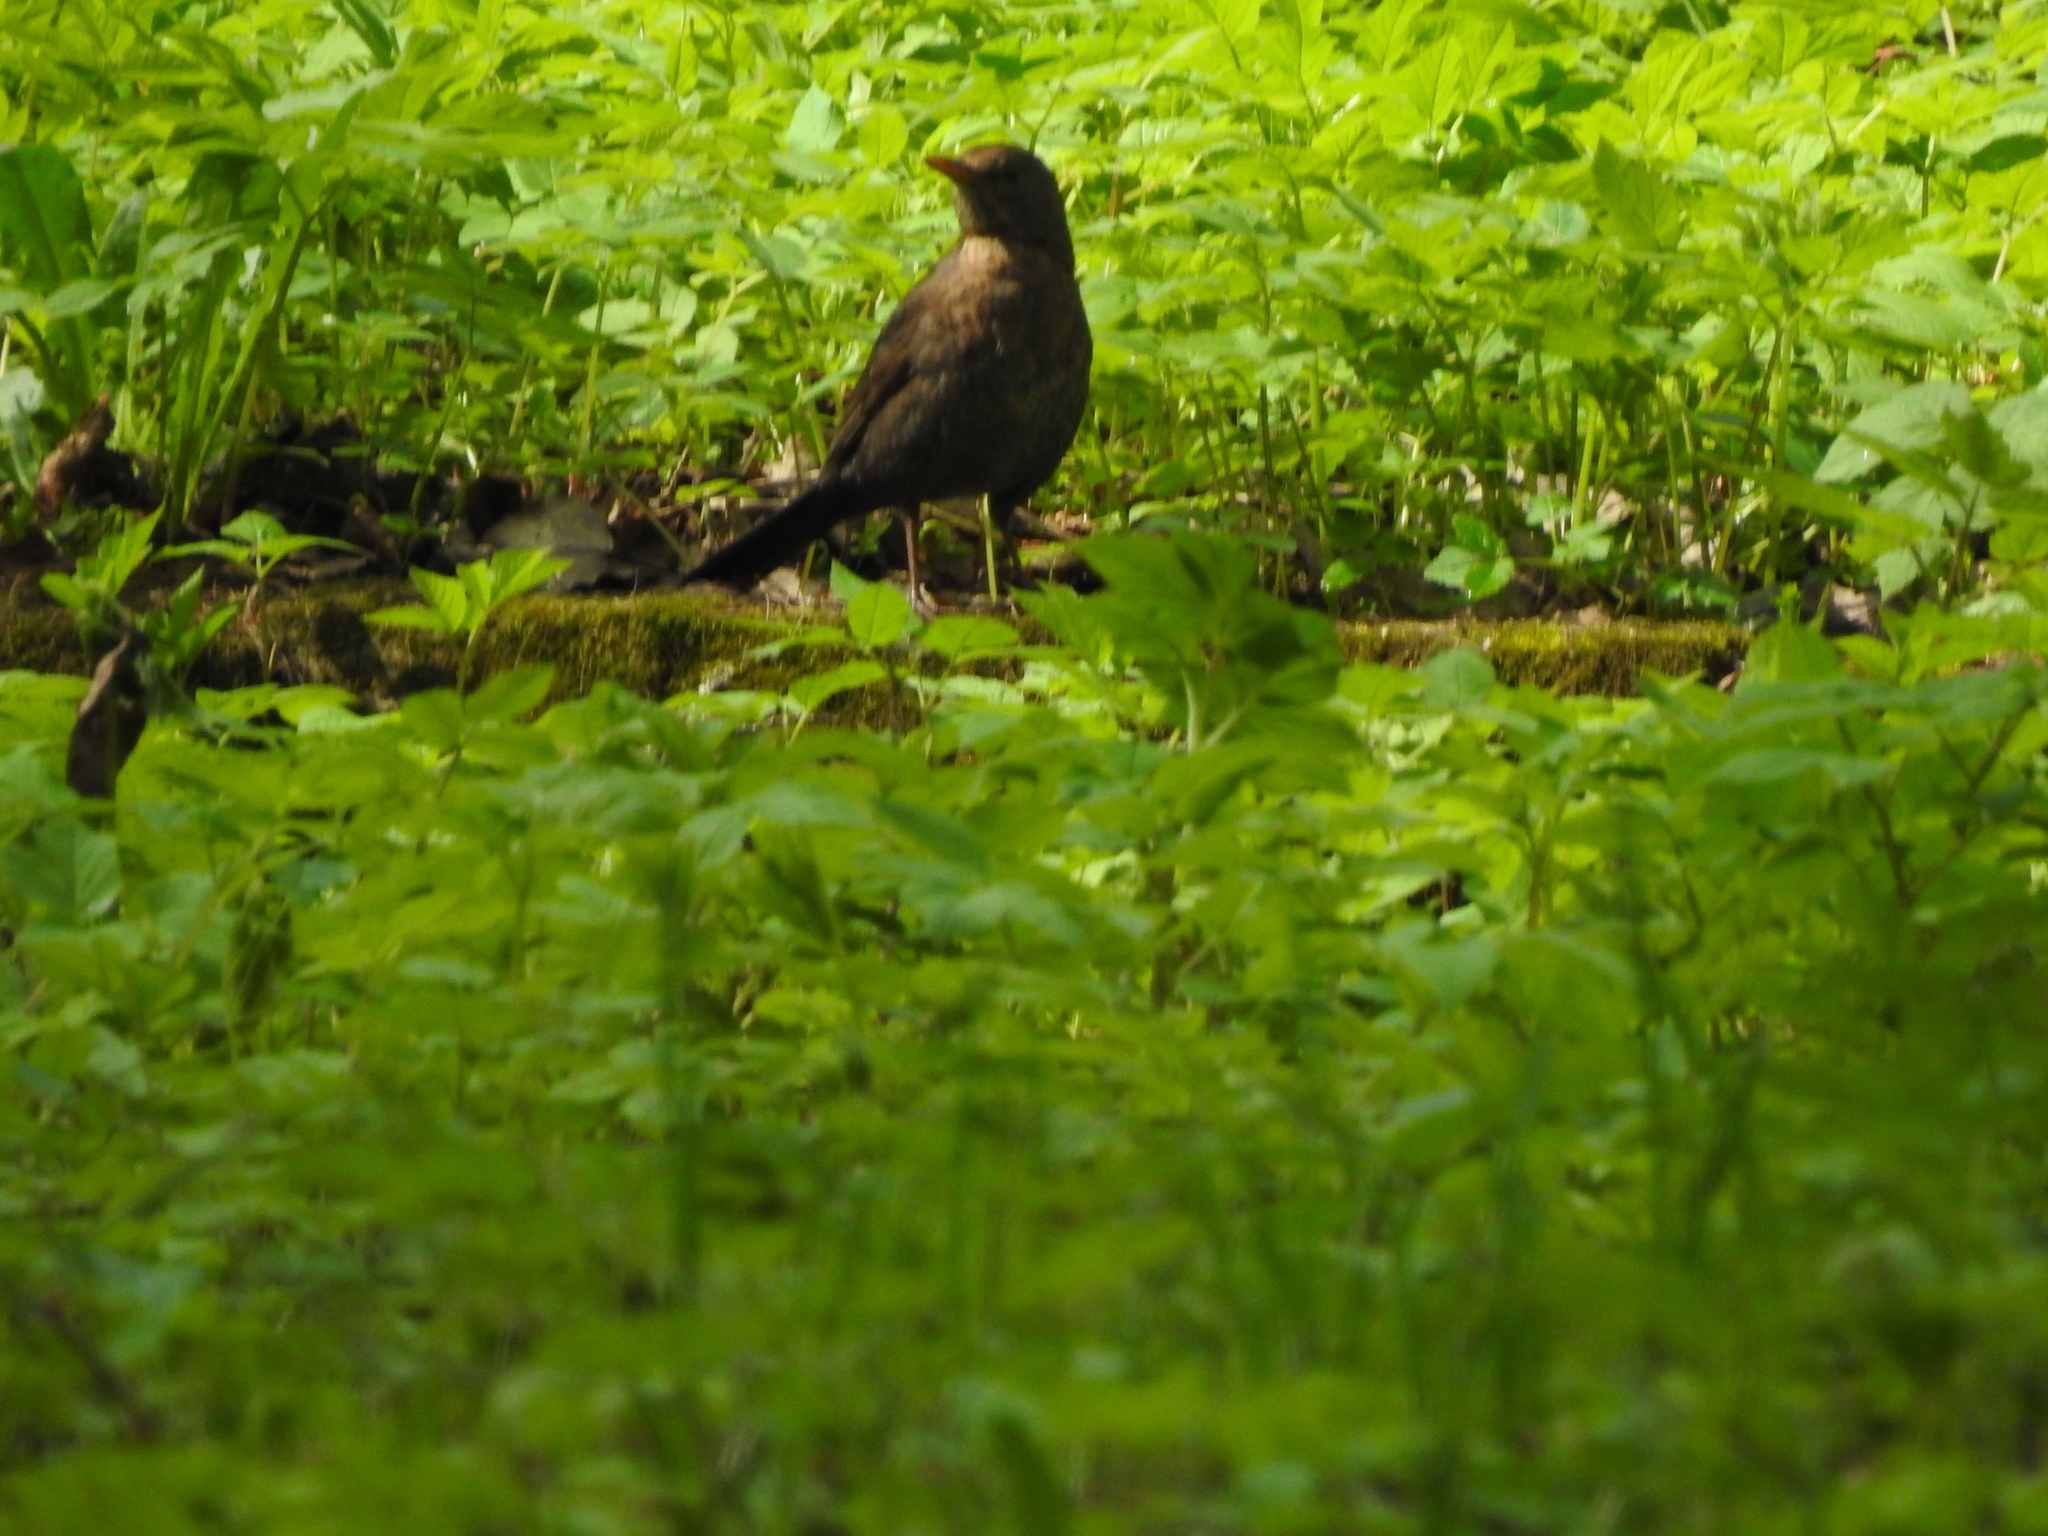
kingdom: Animalia
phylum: Chordata
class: Aves
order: Passeriformes
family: Turdidae
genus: Turdus
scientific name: Turdus merula
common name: Common blackbird
